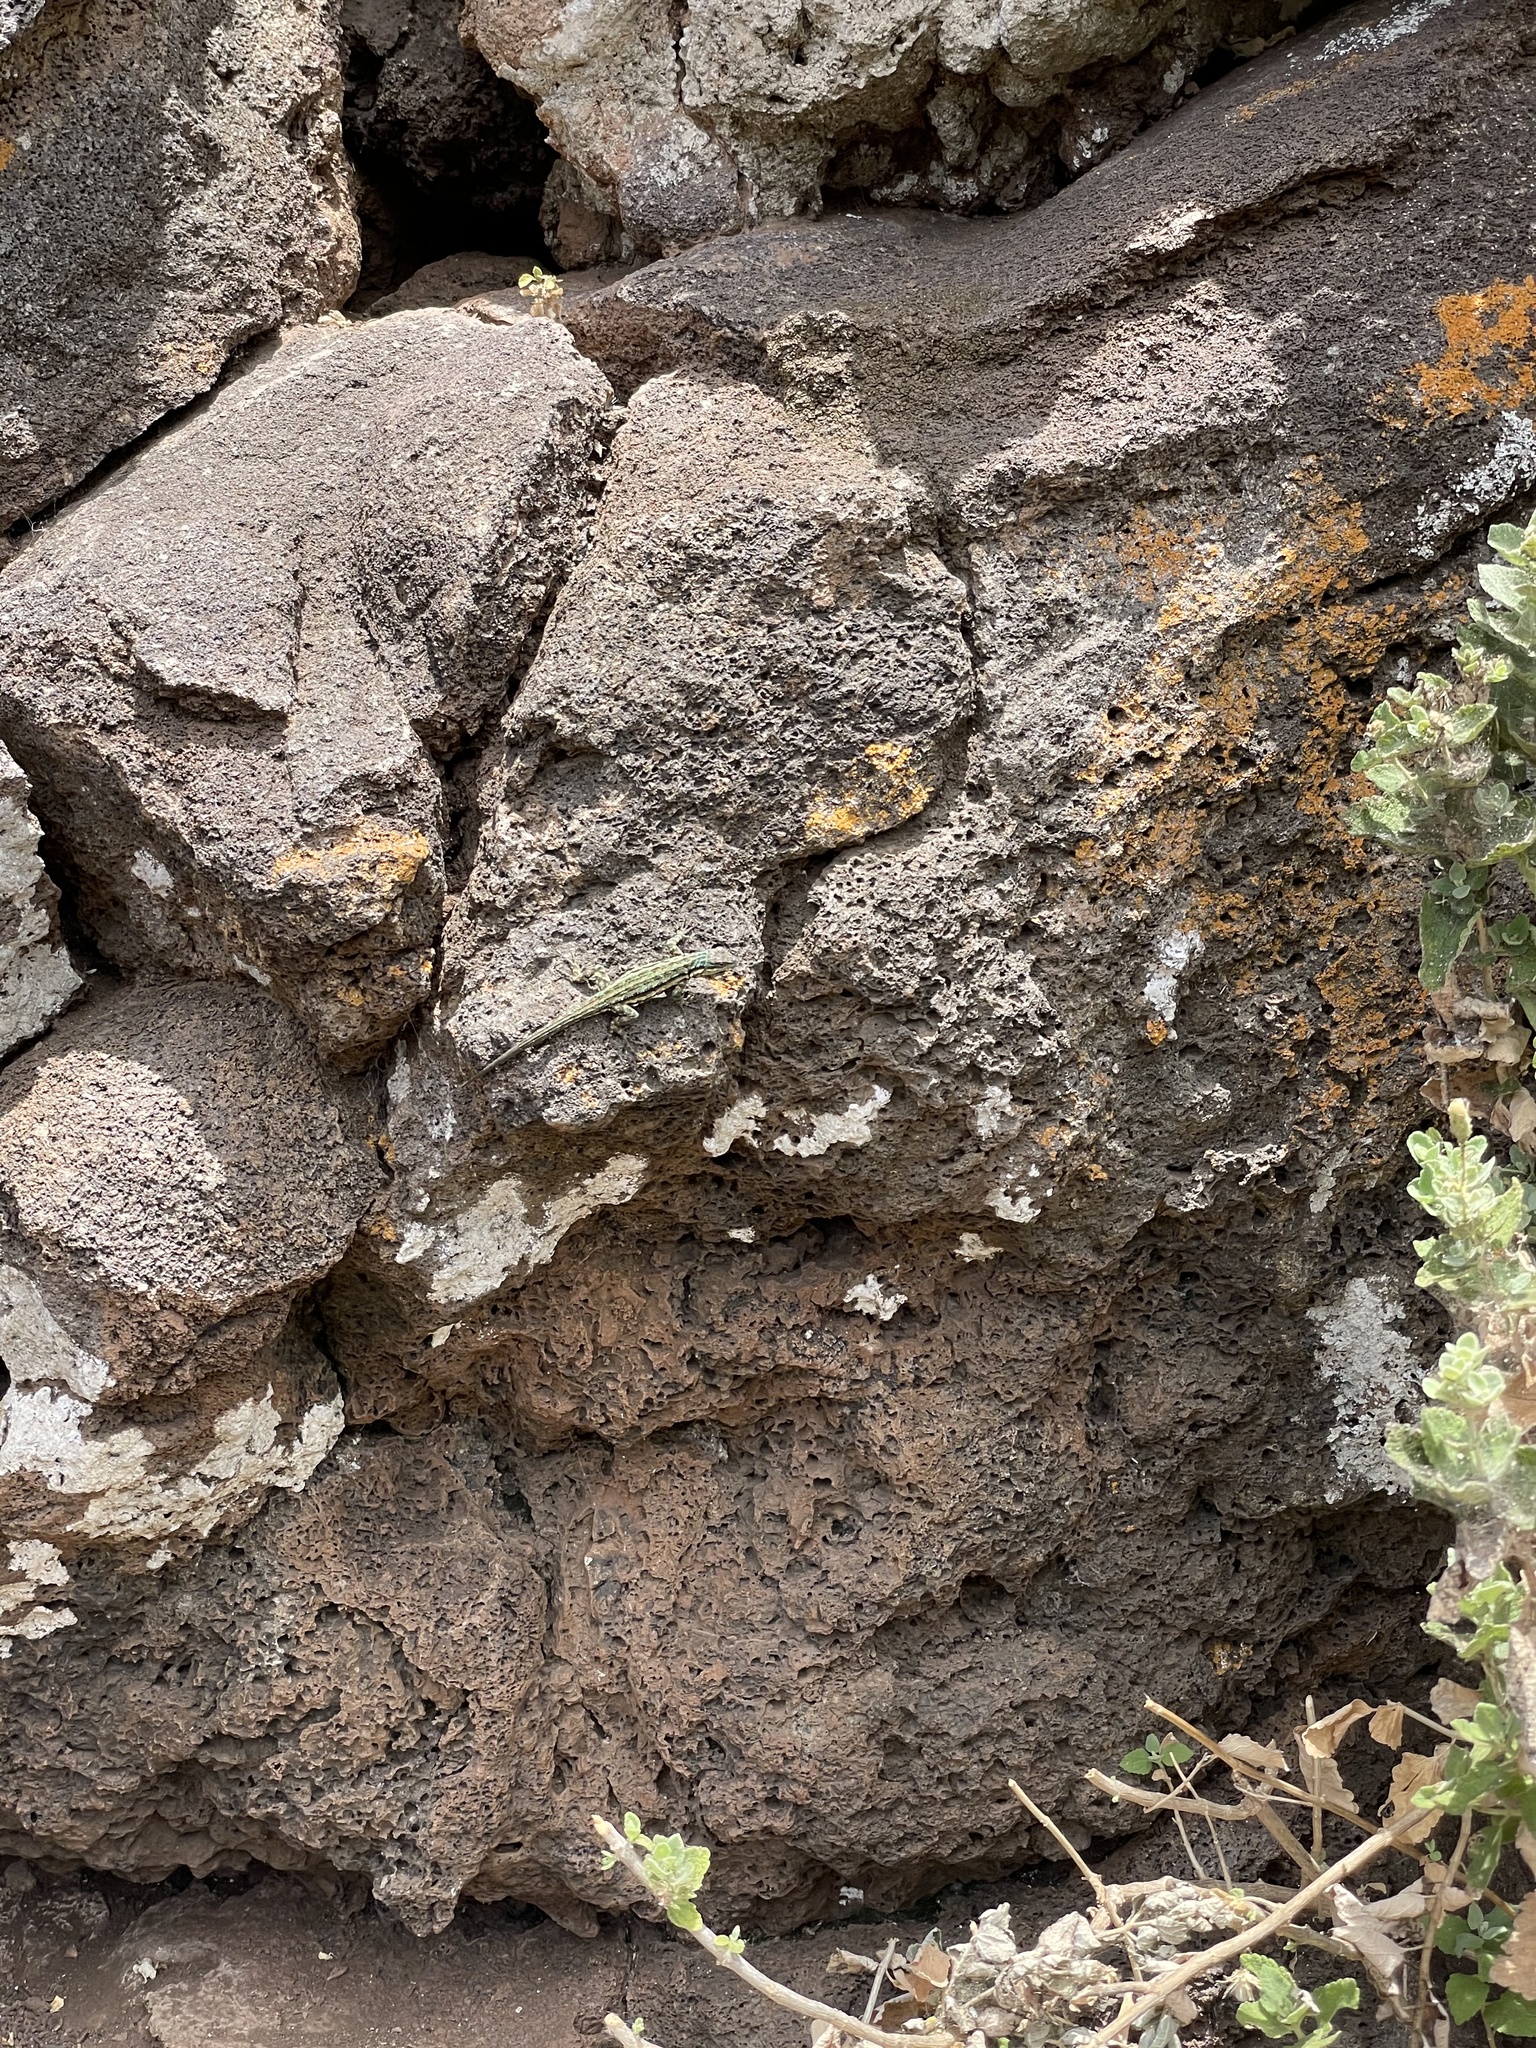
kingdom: Animalia
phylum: Chordata
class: Squamata
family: Phrynosomatidae
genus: Urosaurus
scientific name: Urosaurus clarionensis
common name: Clarion island tree lizard
